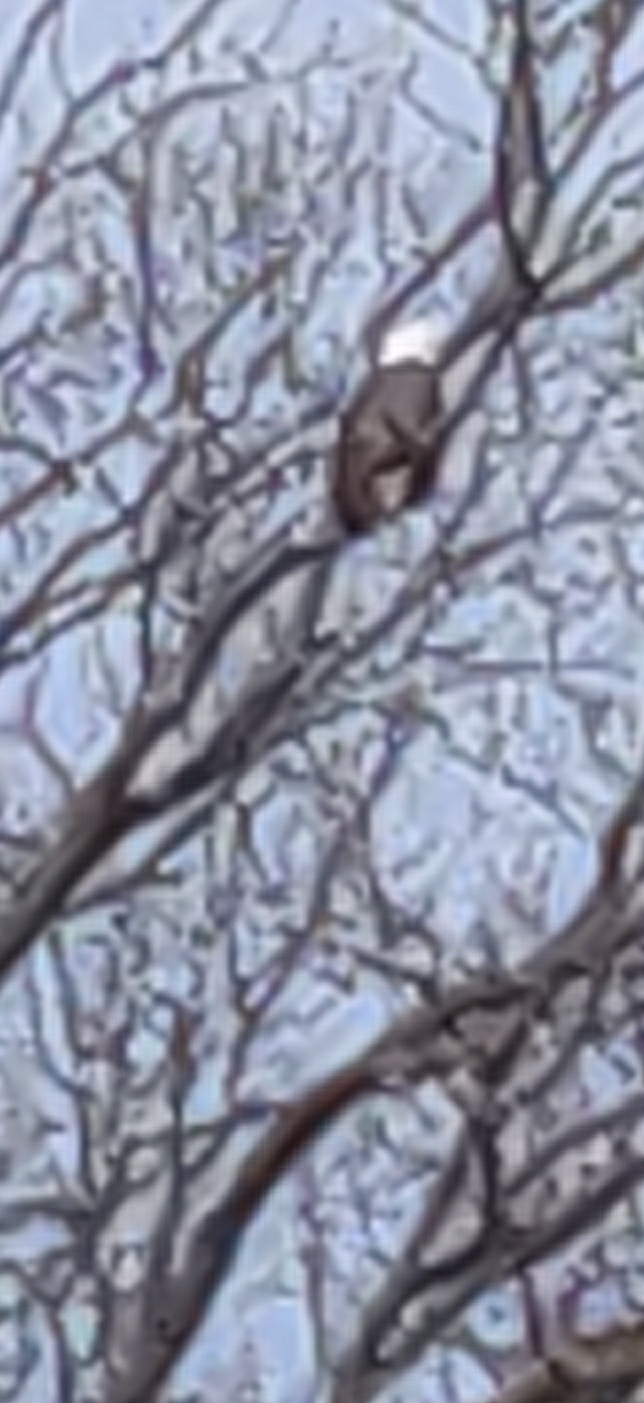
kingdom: Animalia
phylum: Chordata
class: Aves
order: Accipitriformes
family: Accipitridae
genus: Haliaeetus
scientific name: Haliaeetus leucocephalus
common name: Bald eagle
